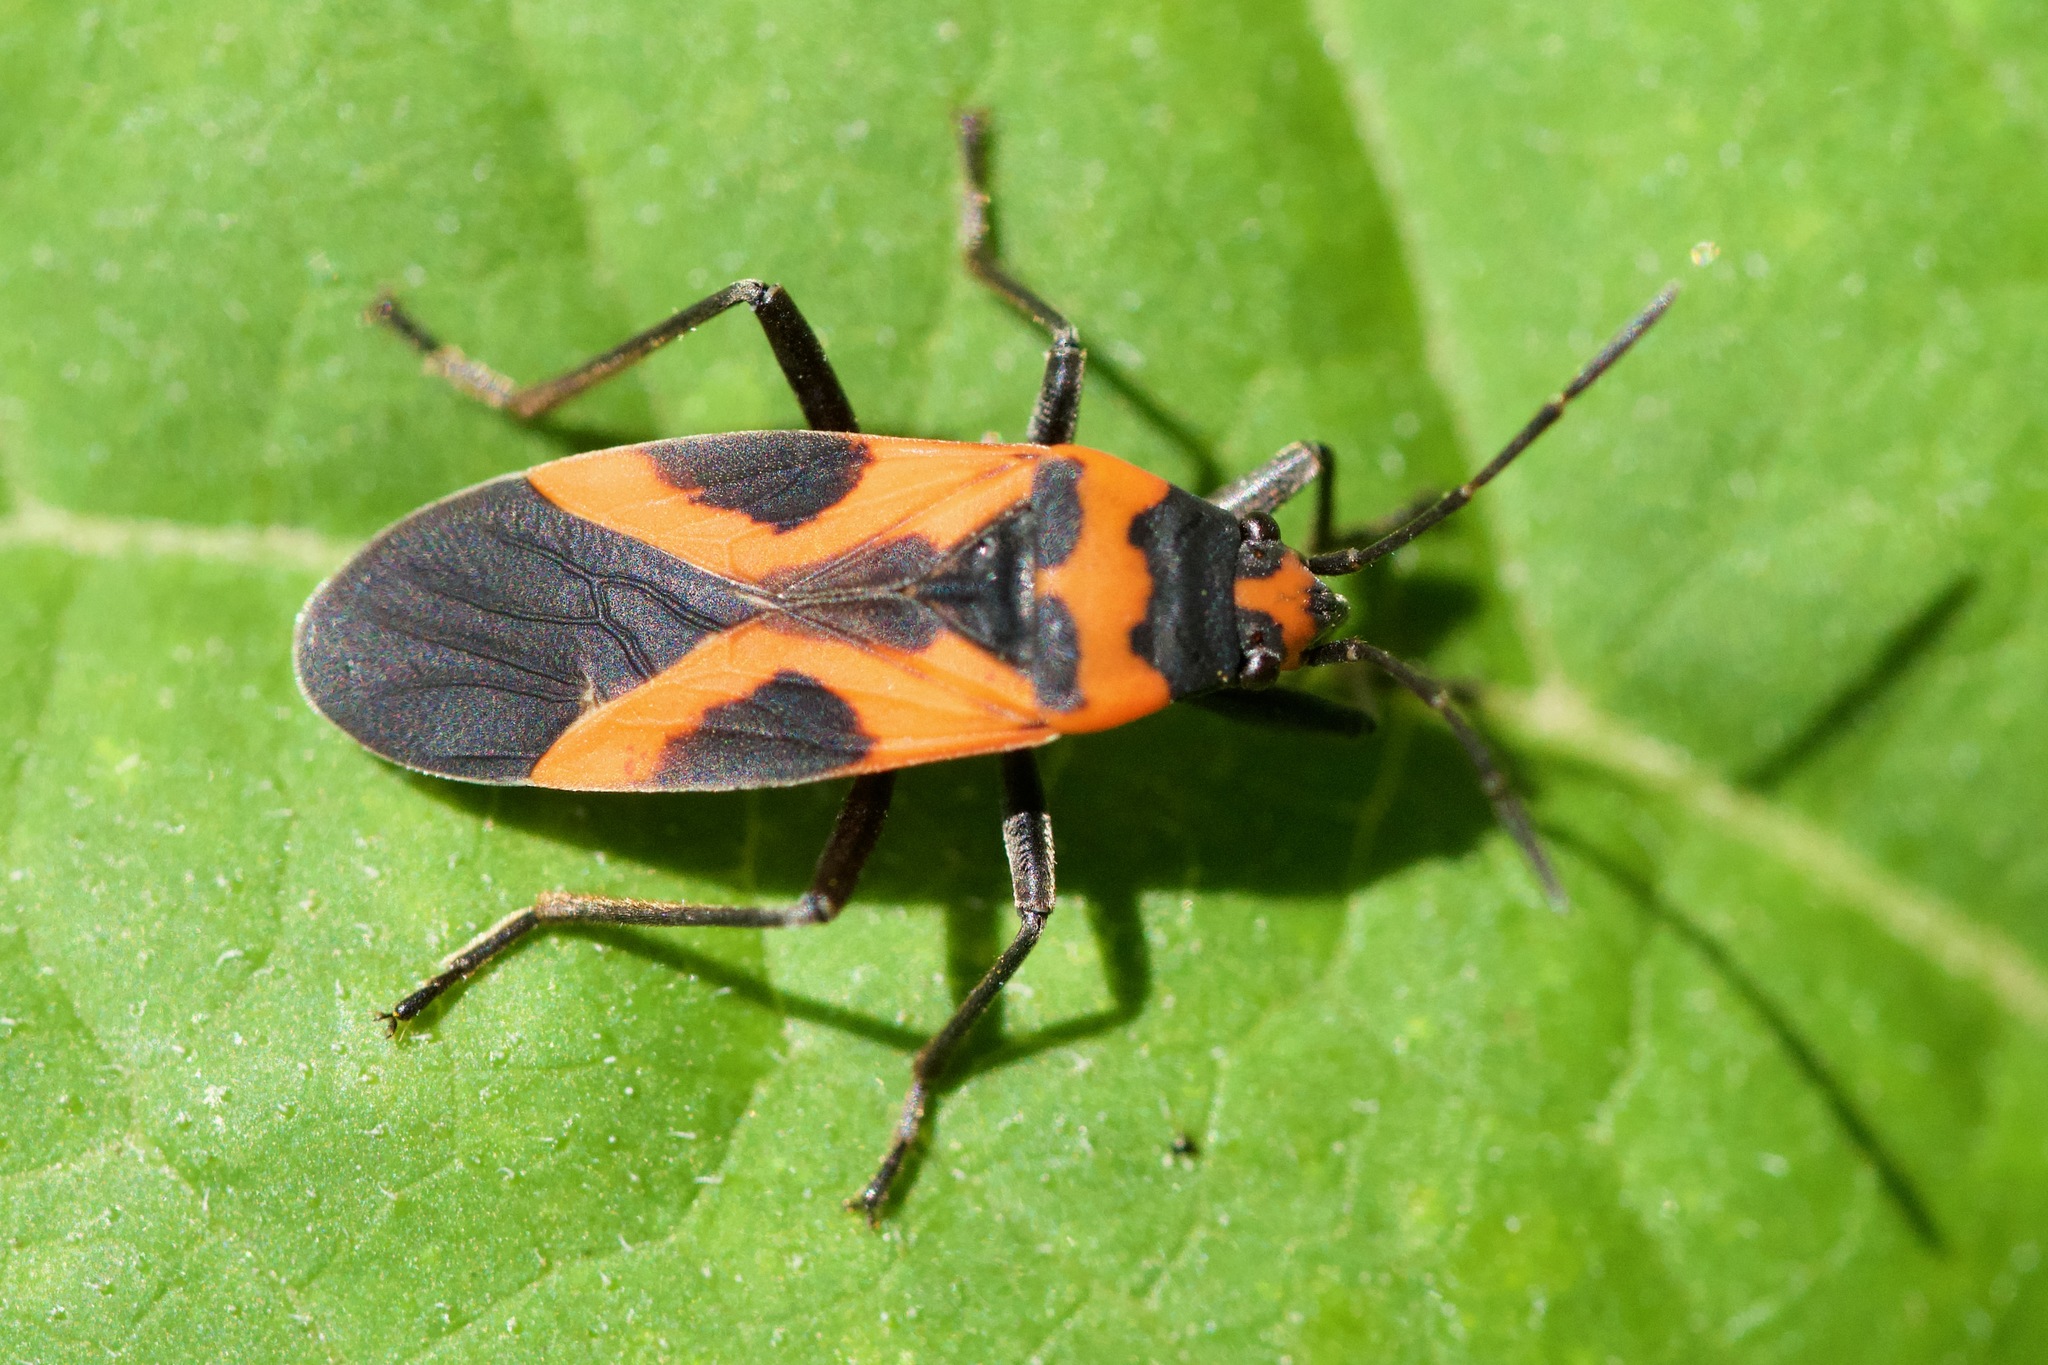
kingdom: Animalia
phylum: Arthropoda
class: Insecta
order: Hemiptera
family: Lygaeidae
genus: Lygaeus
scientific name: Lygaeus turcicus
